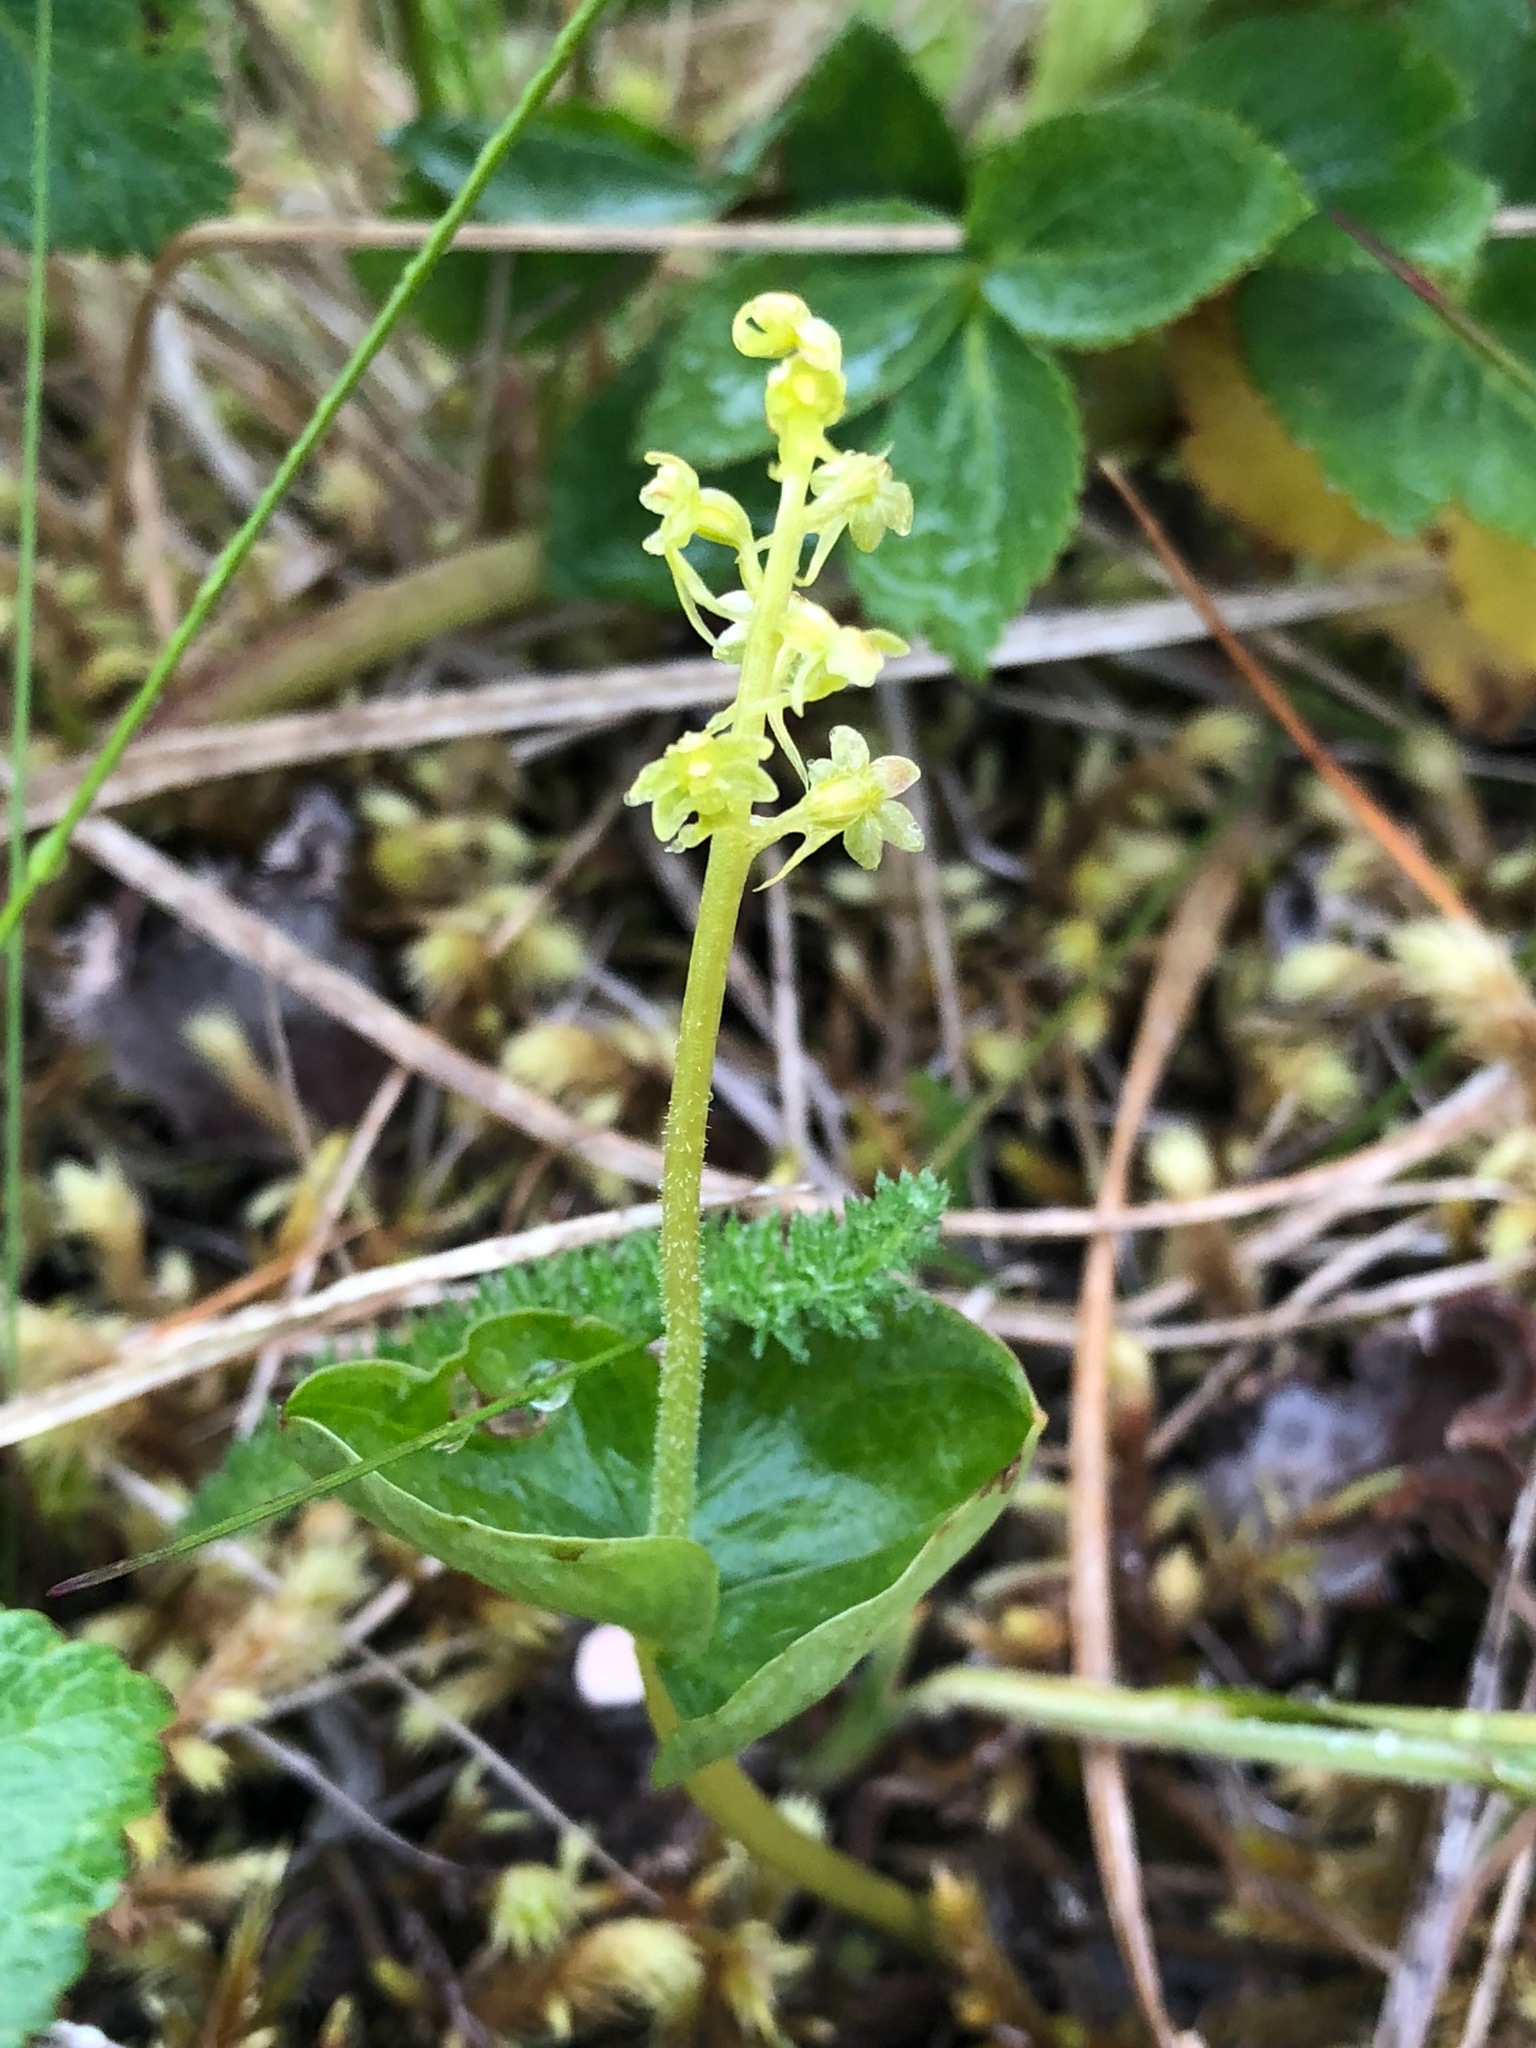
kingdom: Plantae
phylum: Tracheophyta
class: Liliopsida
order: Asparagales
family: Orchidaceae
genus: Neottia
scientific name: Neottia cordata
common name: Lesser twayblade
